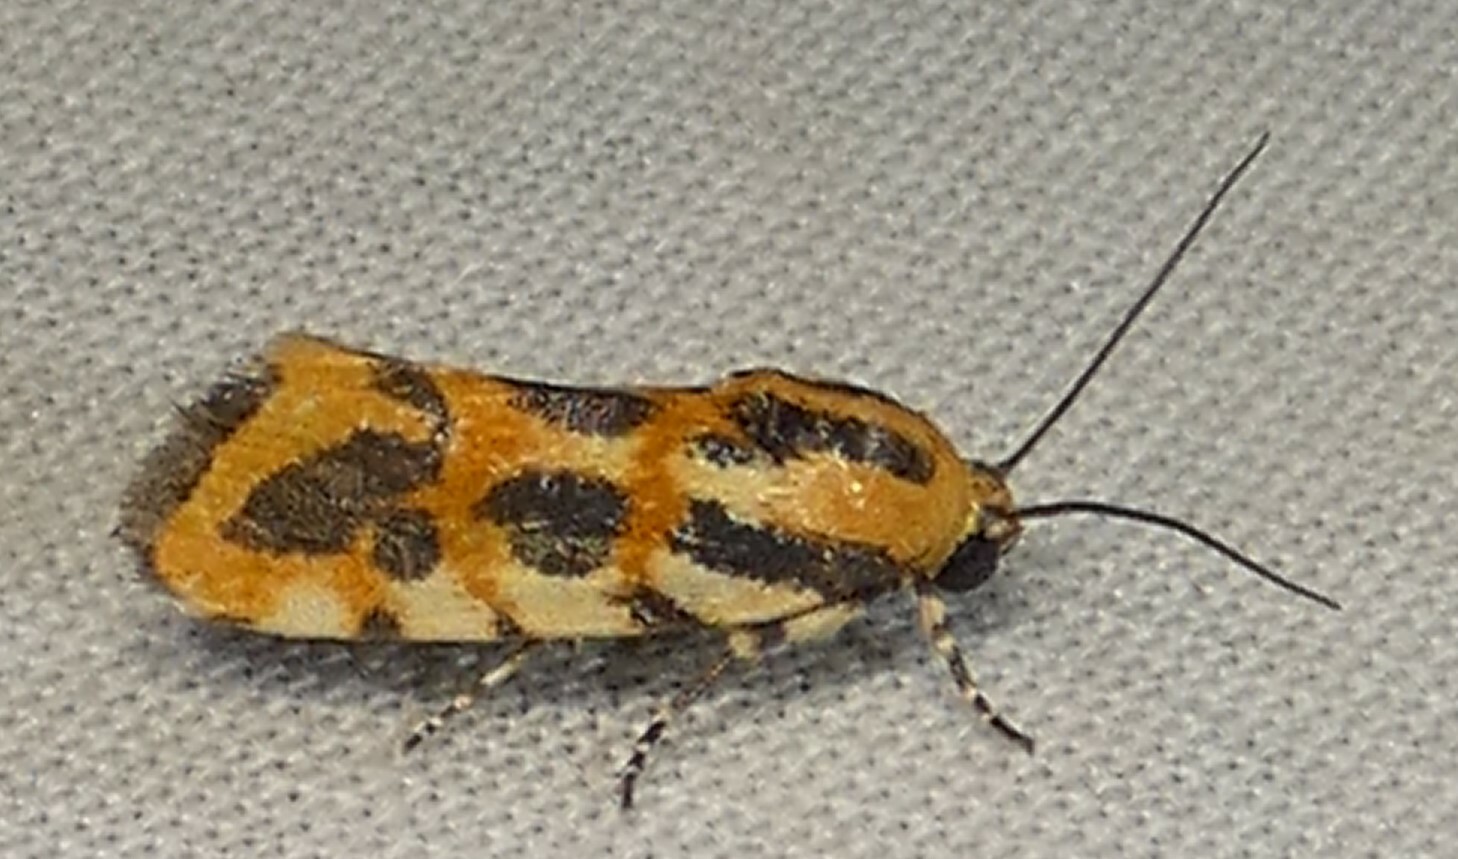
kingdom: Animalia
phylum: Arthropoda
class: Insecta
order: Lepidoptera
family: Noctuidae
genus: Acontia
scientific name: Acontia leo
